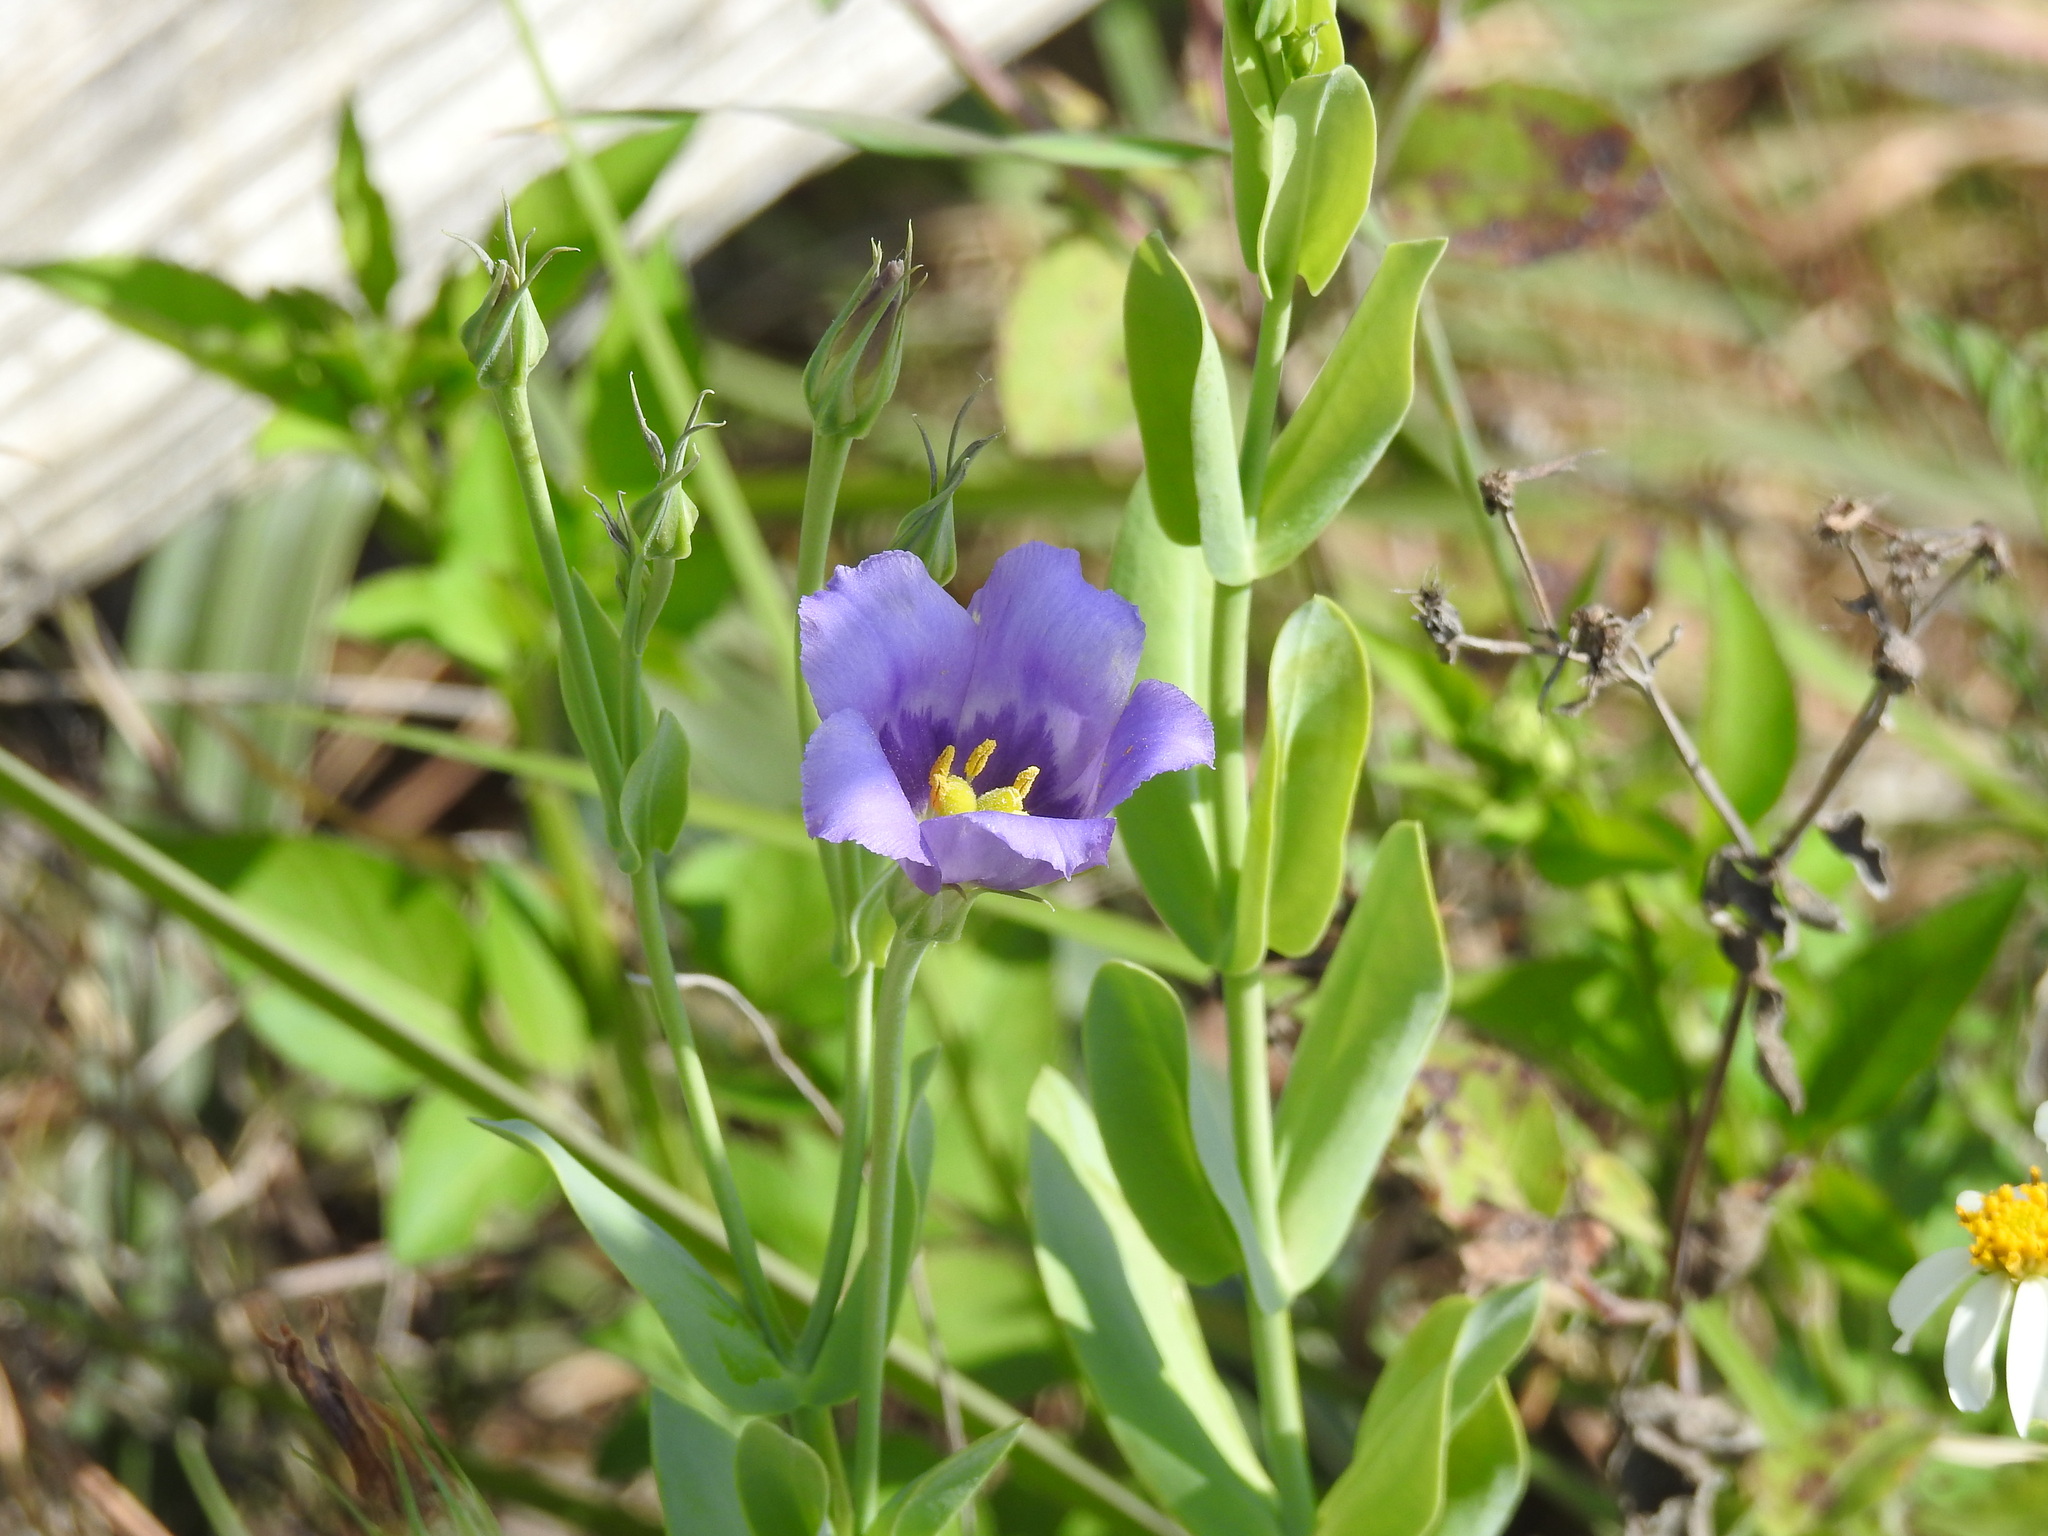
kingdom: Plantae
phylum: Tracheophyta
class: Magnoliopsida
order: Gentianales
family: Gentianaceae
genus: Eustoma
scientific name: Eustoma exaltatum
